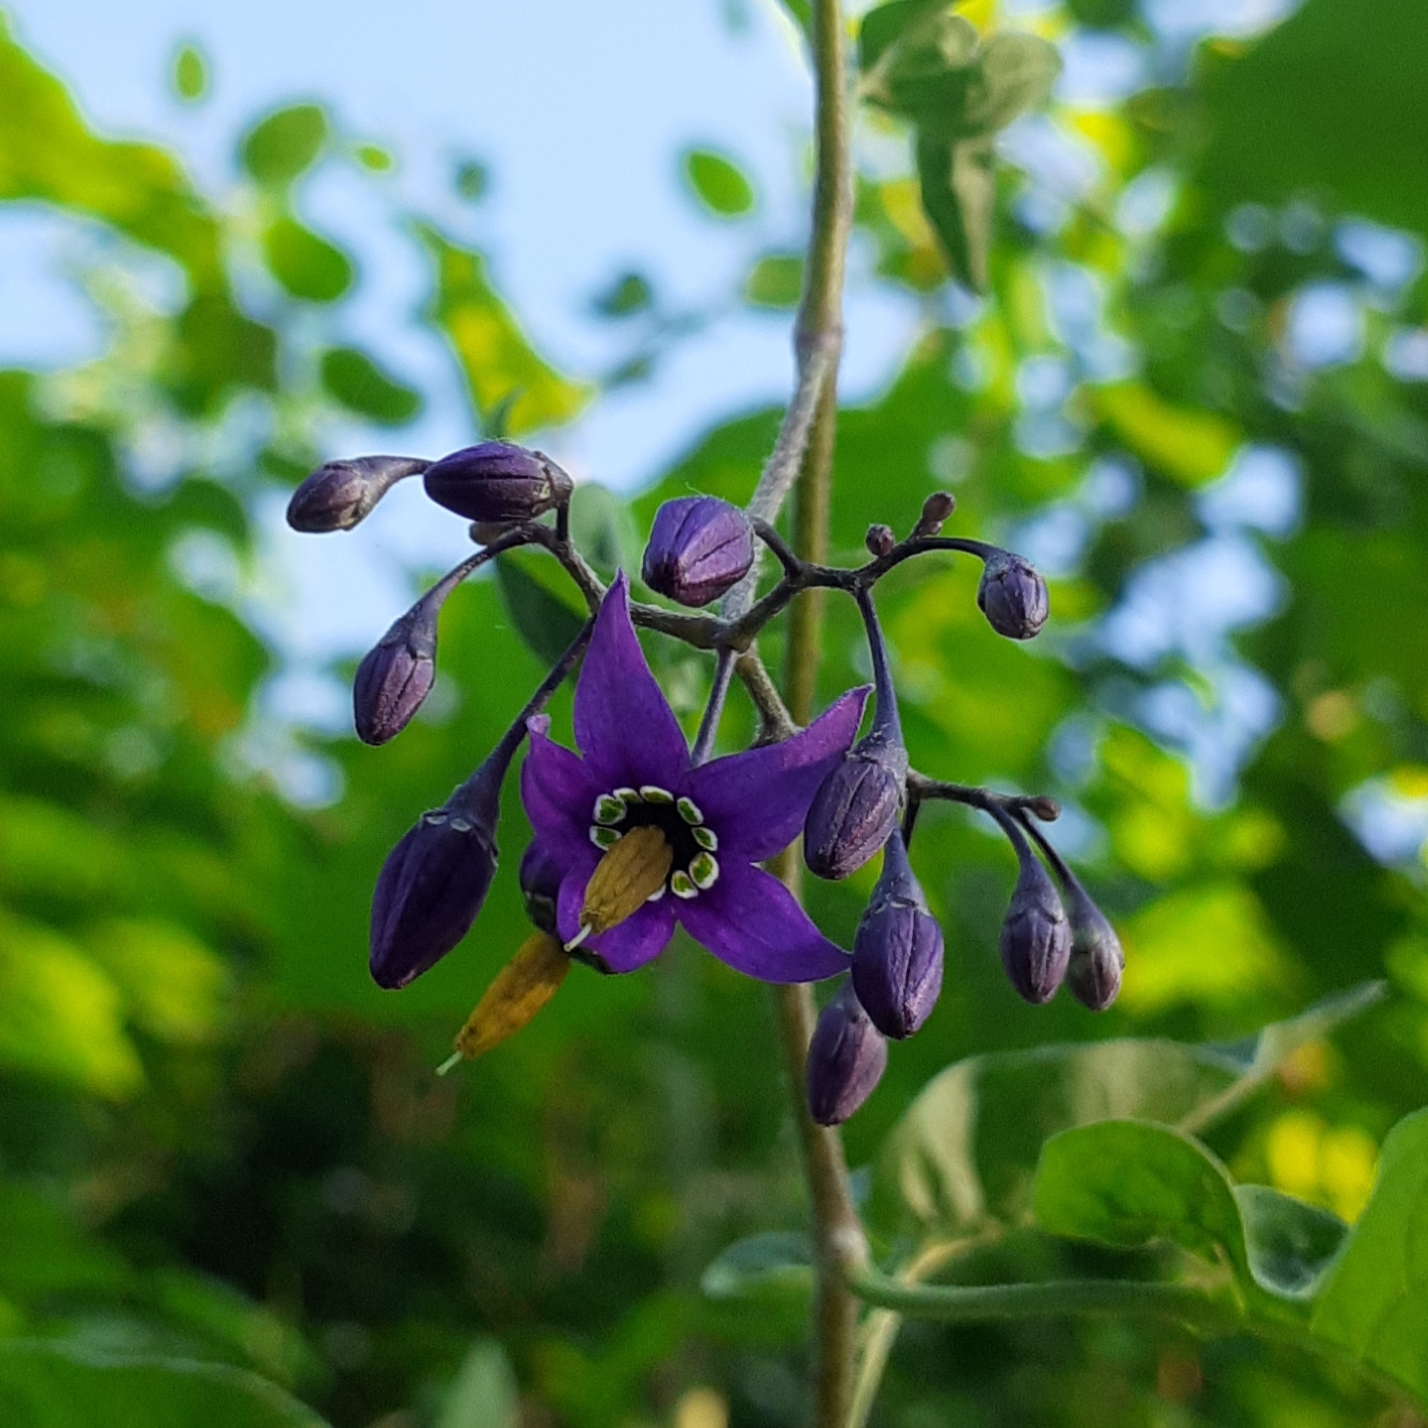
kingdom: Plantae
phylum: Tracheophyta
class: Magnoliopsida
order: Solanales
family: Solanaceae
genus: Solanum
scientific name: Solanum dulcamara
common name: Climbing nightshade
